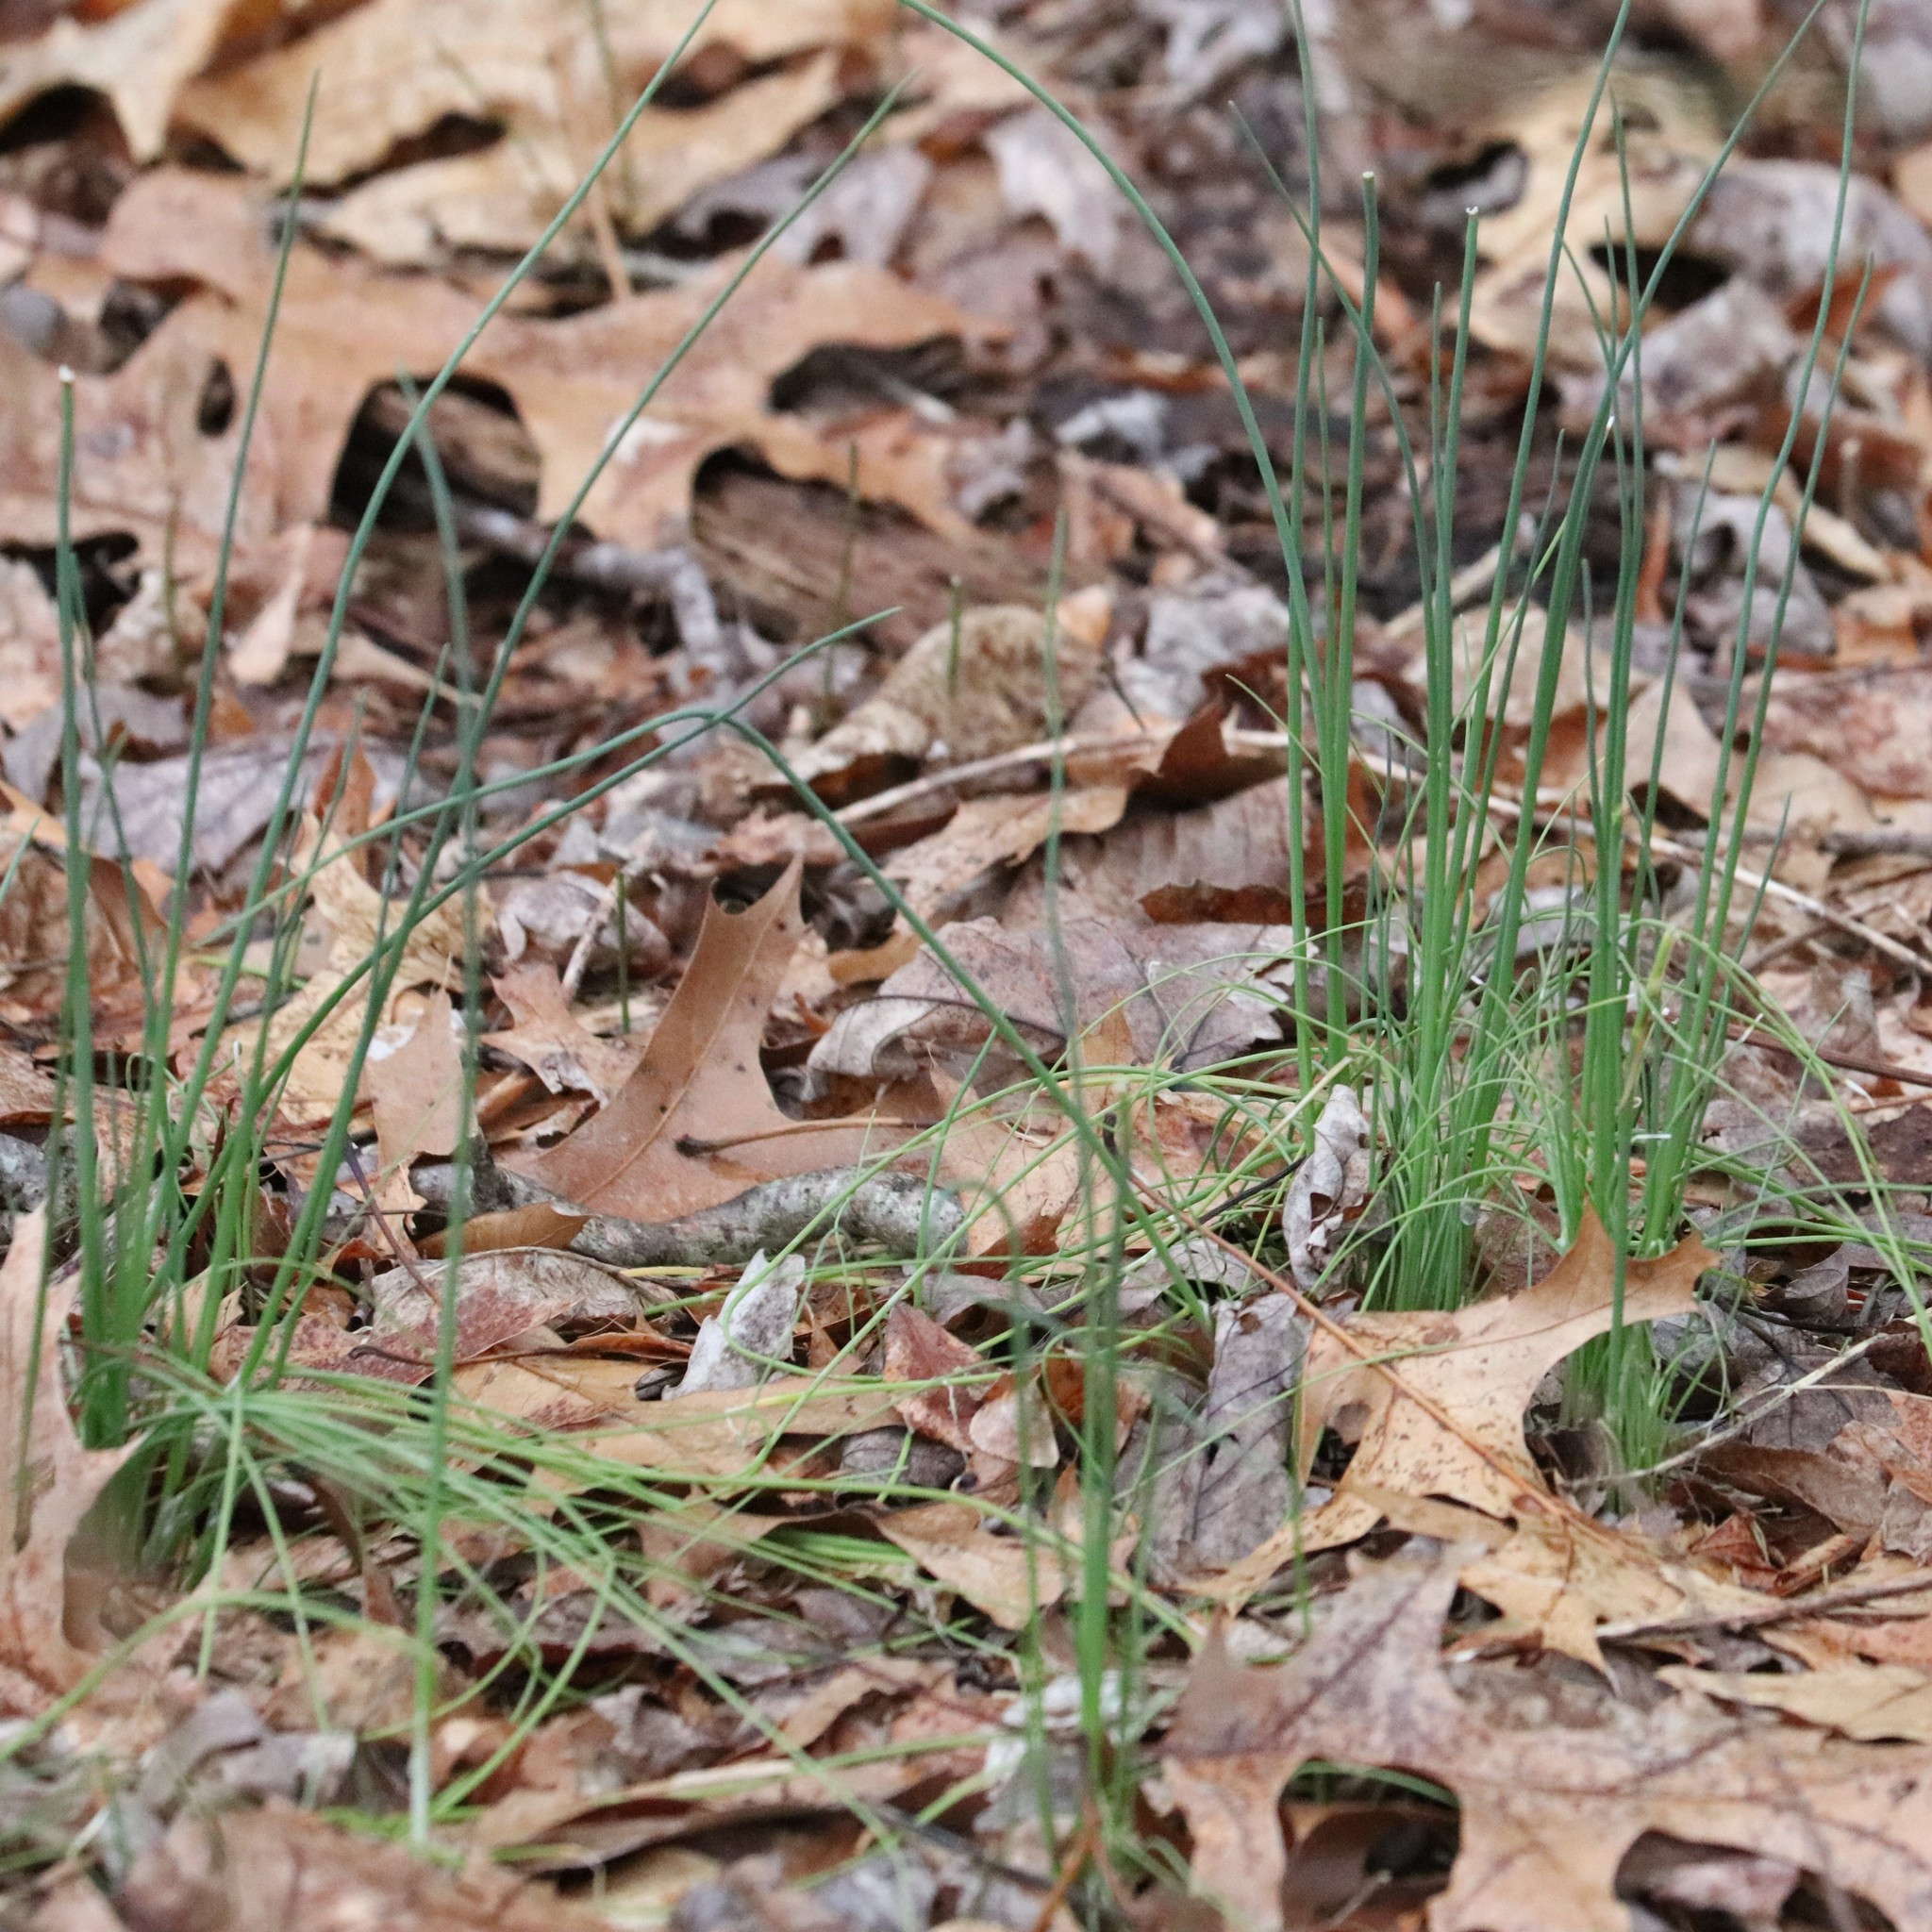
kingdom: Plantae
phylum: Tracheophyta
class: Liliopsida
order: Asparagales
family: Amaryllidaceae
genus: Allium
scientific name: Allium vineale
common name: Crow garlic
